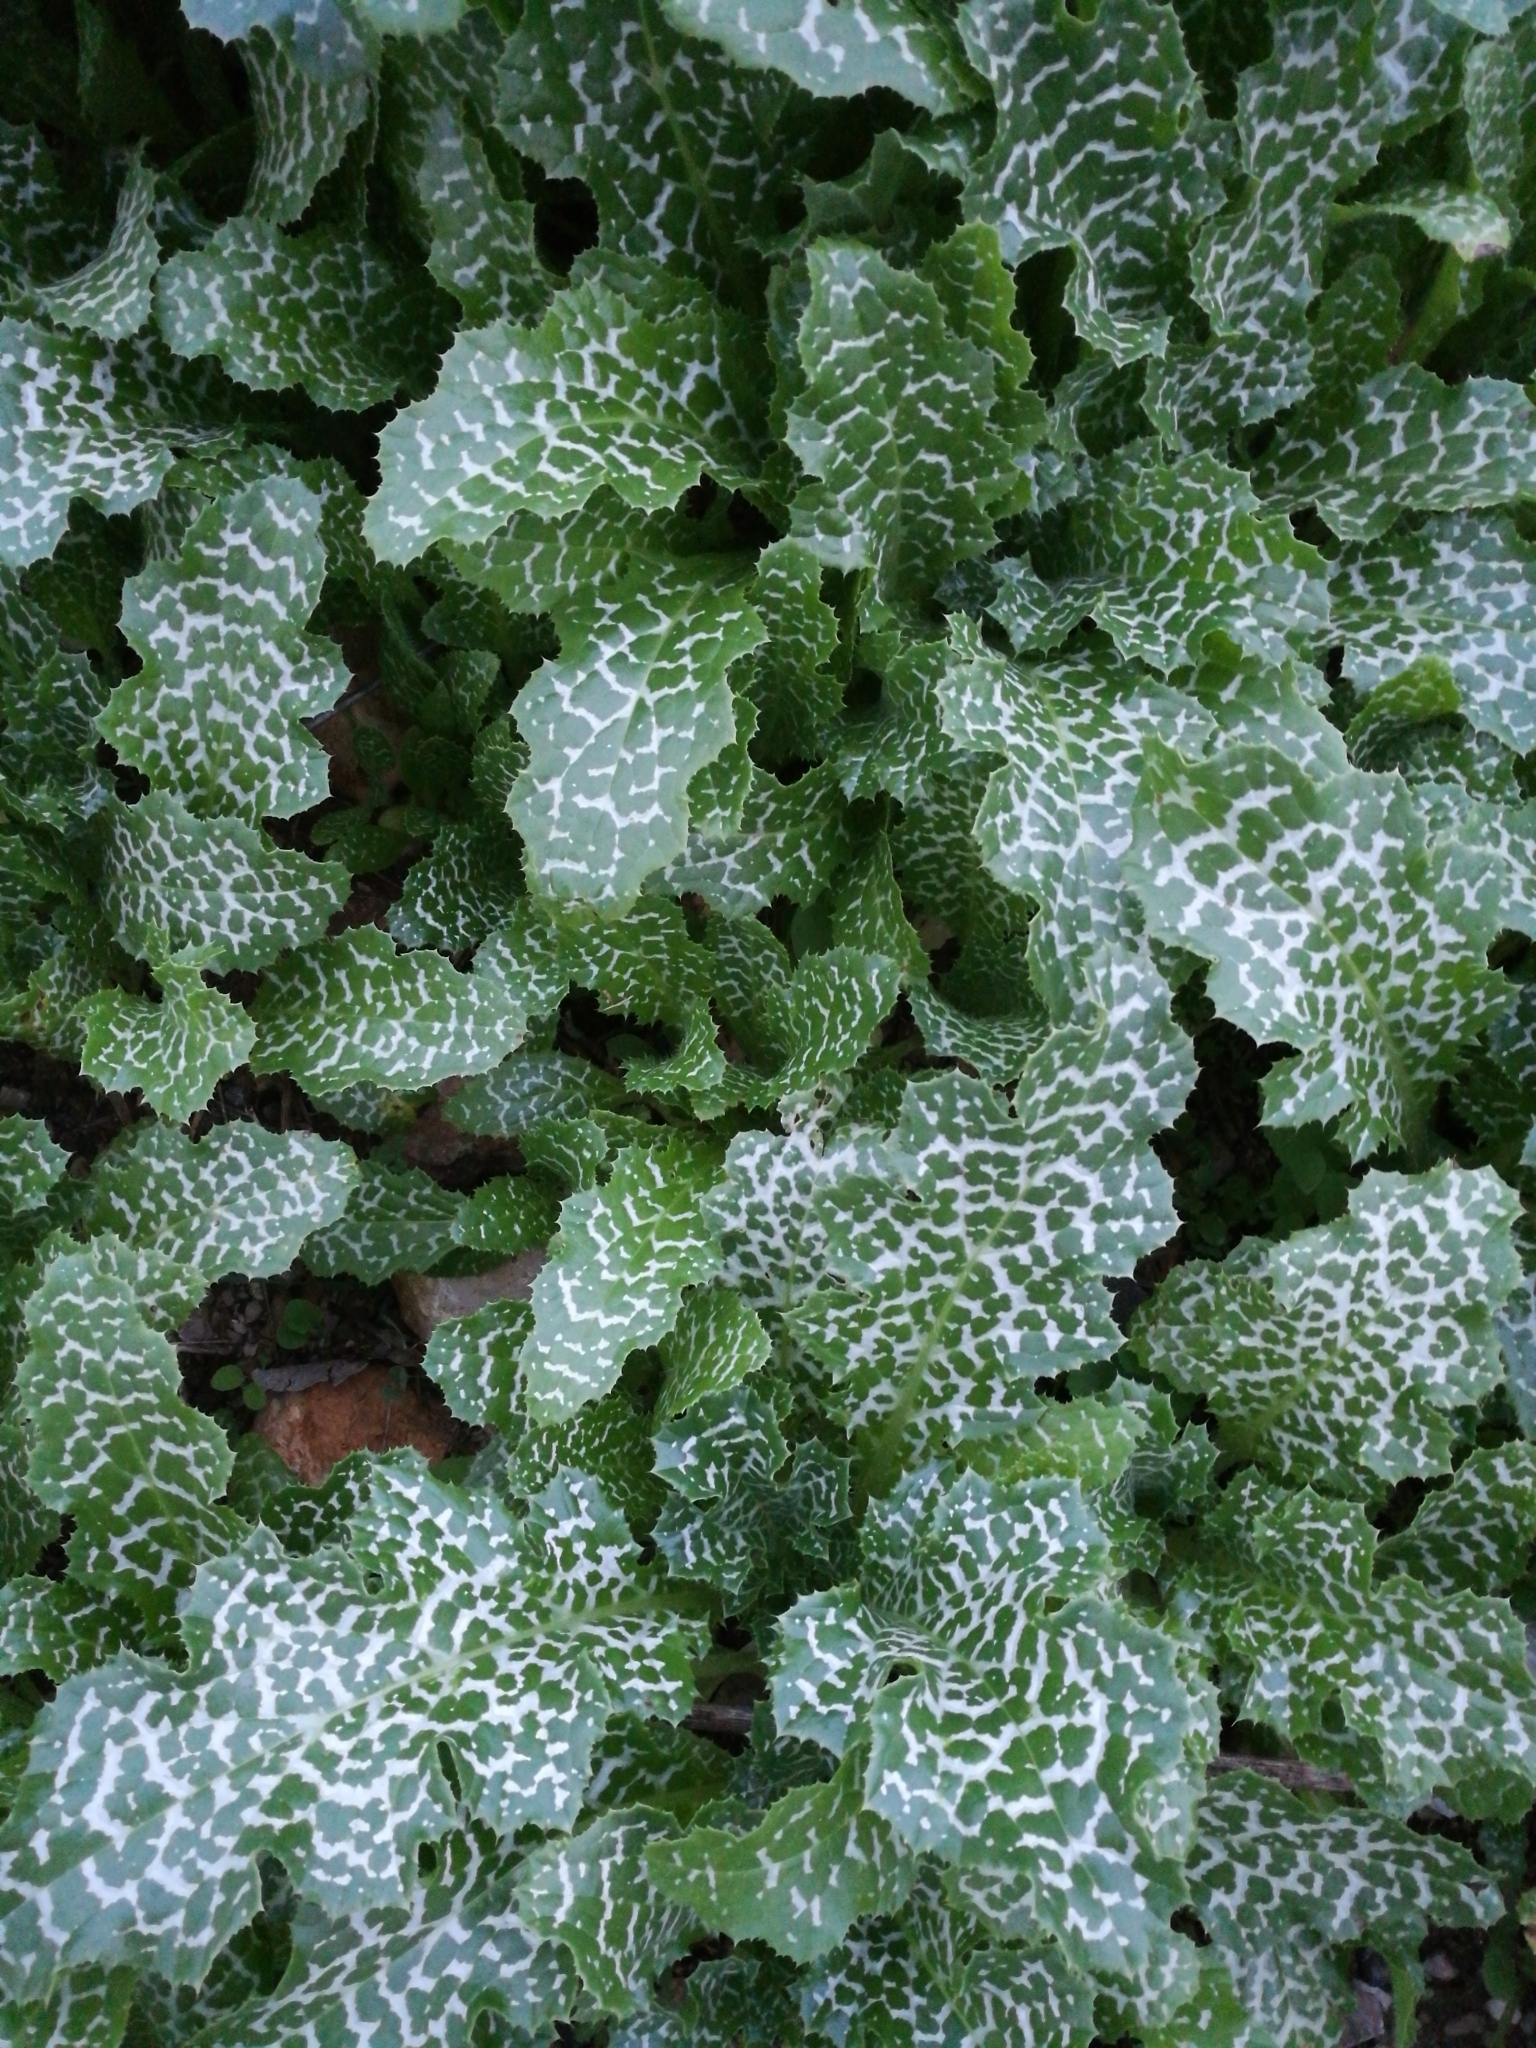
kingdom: Plantae
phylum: Tracheophyta
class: Magnoliopsida
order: Asterales
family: Asteraceae
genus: Silybum
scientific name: Silybum marianum
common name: Milk thistle
